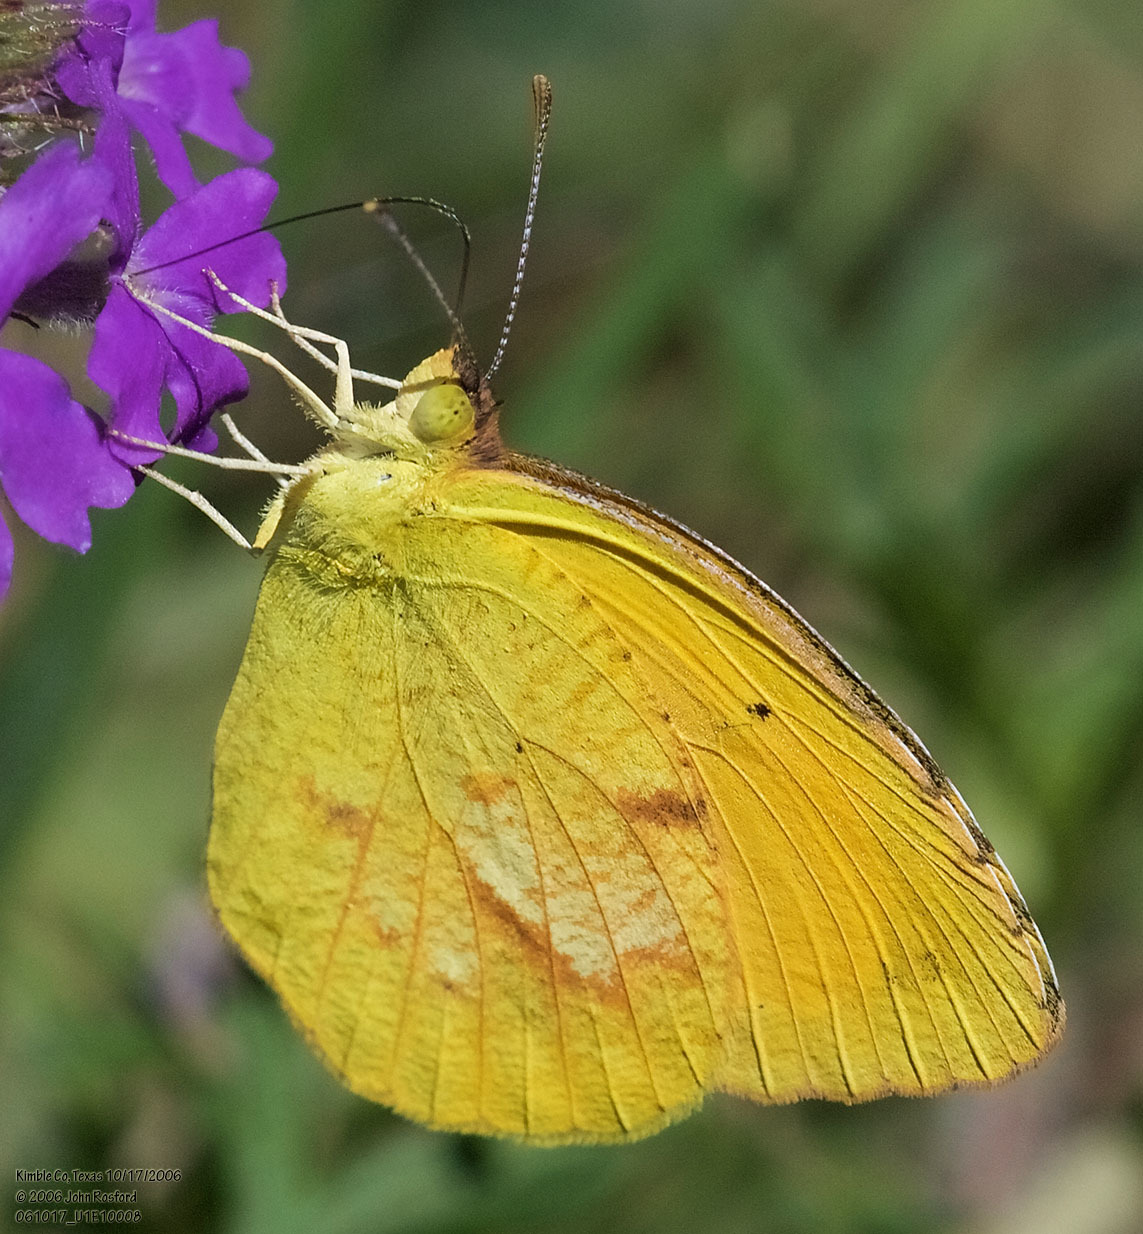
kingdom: Animalia
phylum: Arthropoda
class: Insecta
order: Lepidoptera
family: Pieridae
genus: Abaeis
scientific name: Abaeis nicippe
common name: Sleepy orange
